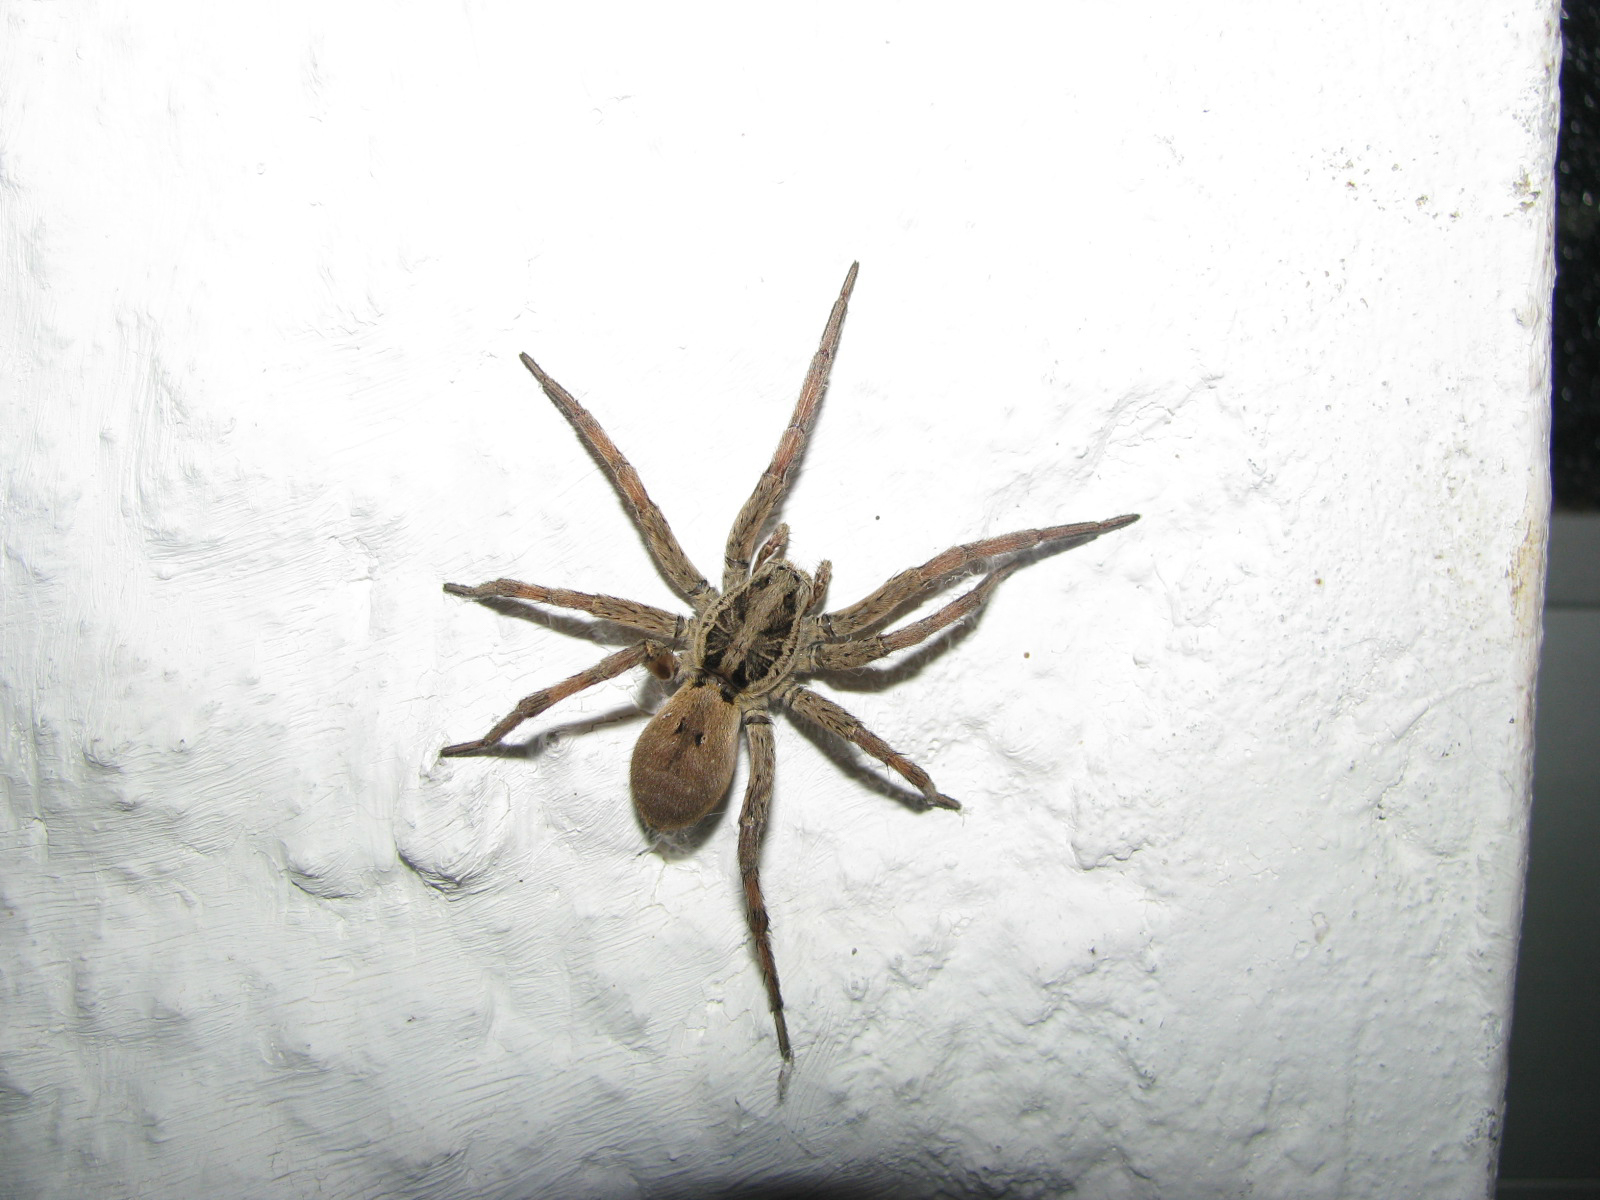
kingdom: Animalia
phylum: Arthropoda
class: Arachnida
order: Araneae
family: Lycosidae
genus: Hogna
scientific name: Hogna radiata
